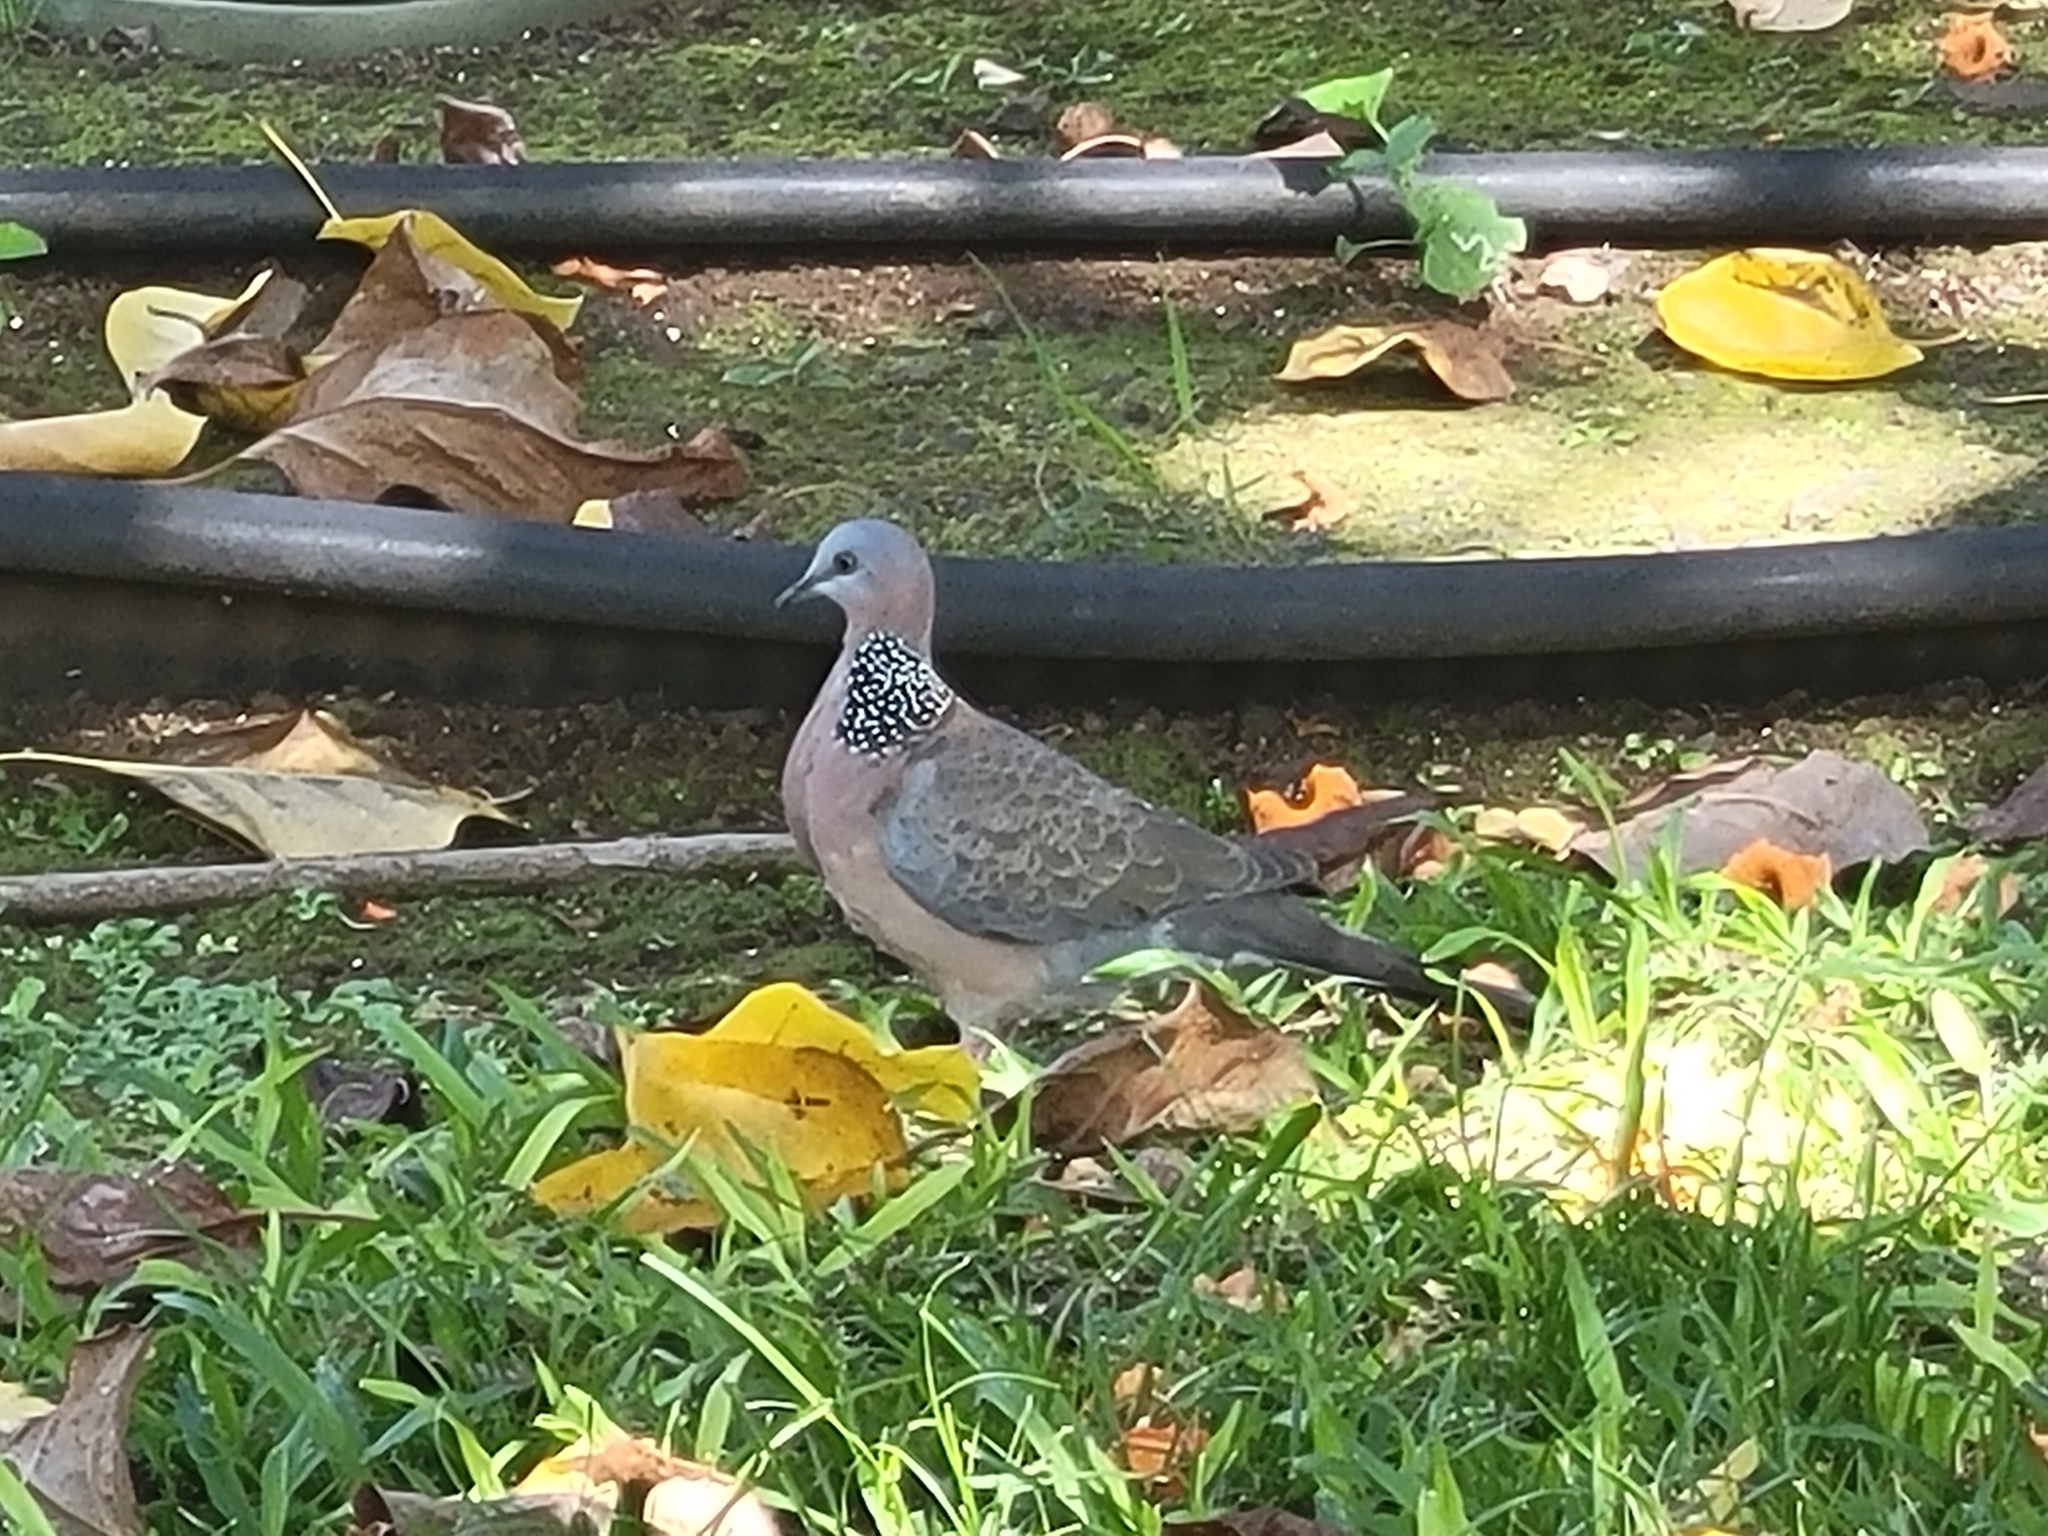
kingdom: Animalia
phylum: Chordata
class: Aves
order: Columbiformes
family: Columbidae
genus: Spilopelia
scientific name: Spilopelia chinensis
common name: Spotted dove
